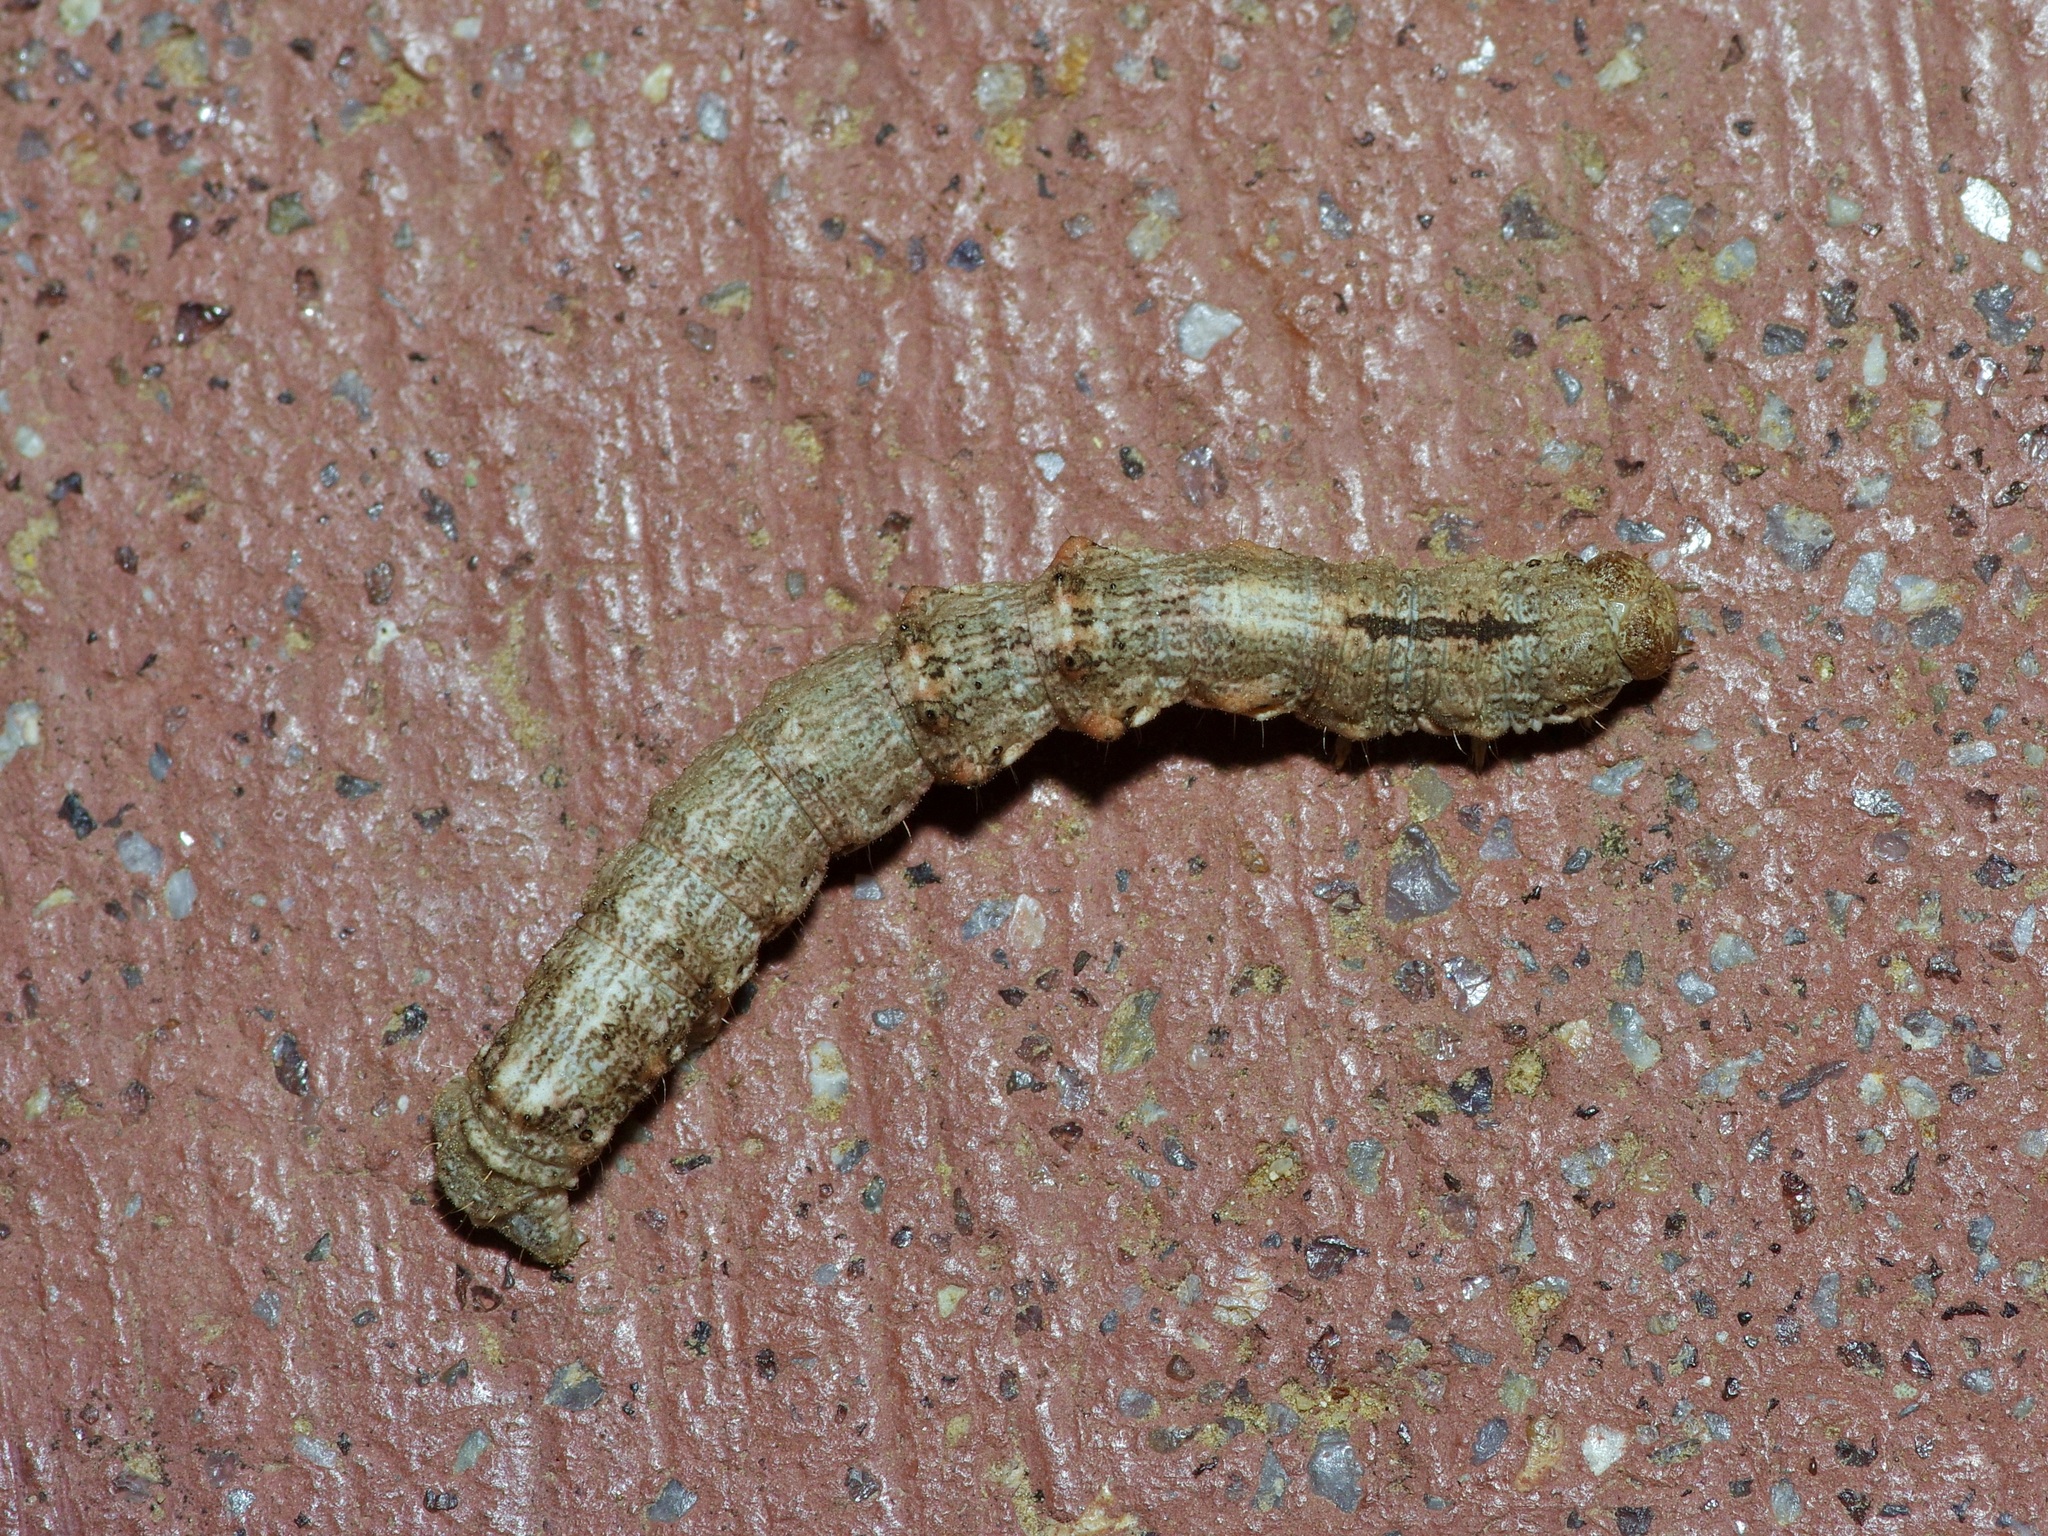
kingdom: Animalia
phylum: Arthropoda
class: Insecta
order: Lepidoptera
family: Geometridae
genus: Phigalia
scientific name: Phigalia strigataria
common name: Small phigalia
